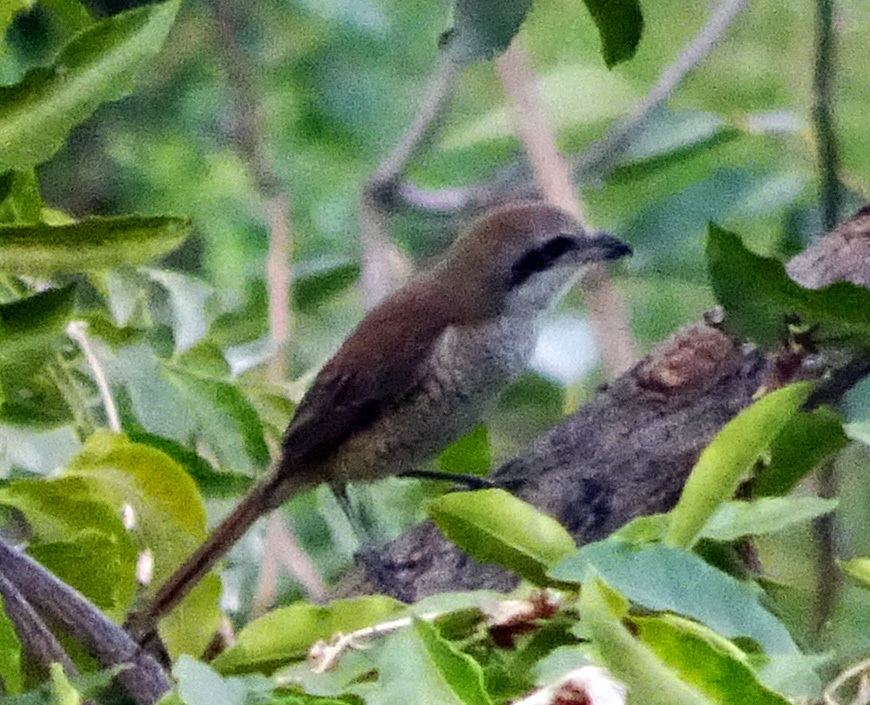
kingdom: Animalia
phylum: Chordata
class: Aves
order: Passeriformes
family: Laniidae
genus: Lanius
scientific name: Lanius cristatus
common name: Brown shrike
